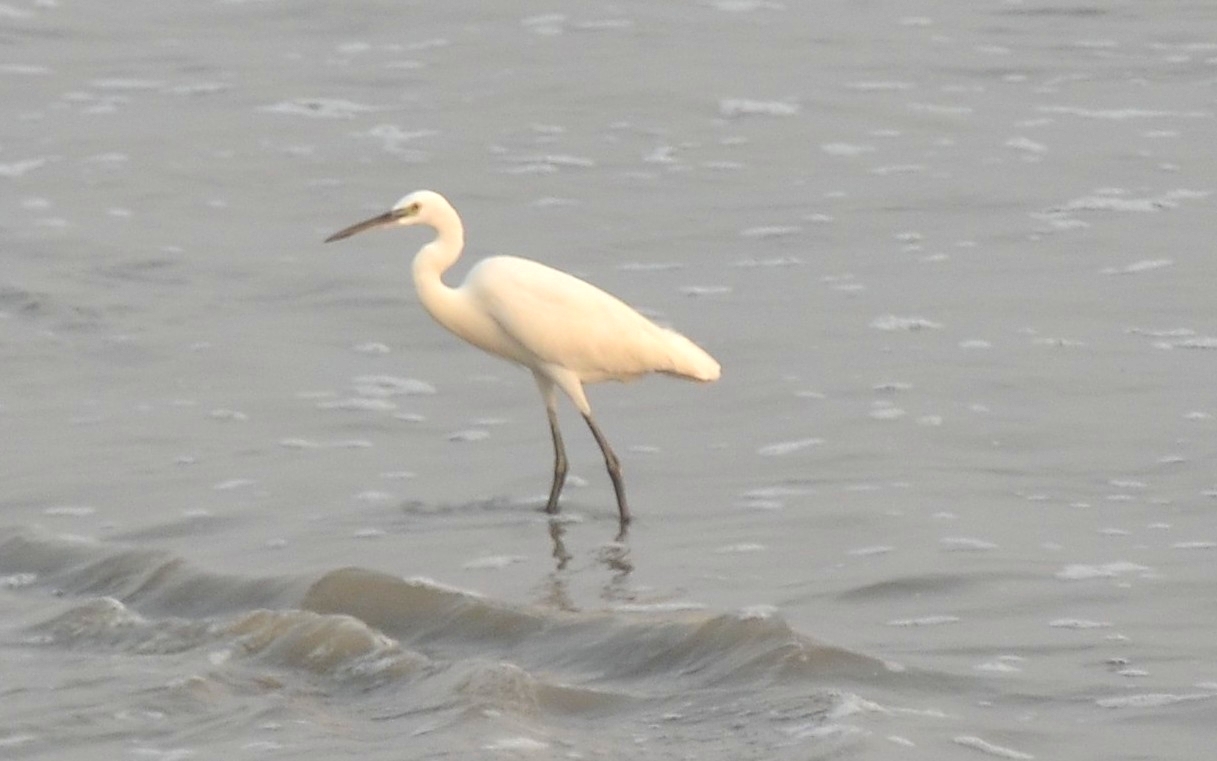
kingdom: Animalia
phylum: Chordata
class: Aves
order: Pelecaniformes
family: Ardeidae
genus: Egretta
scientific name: Egretta gularis
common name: Western reef-heron
